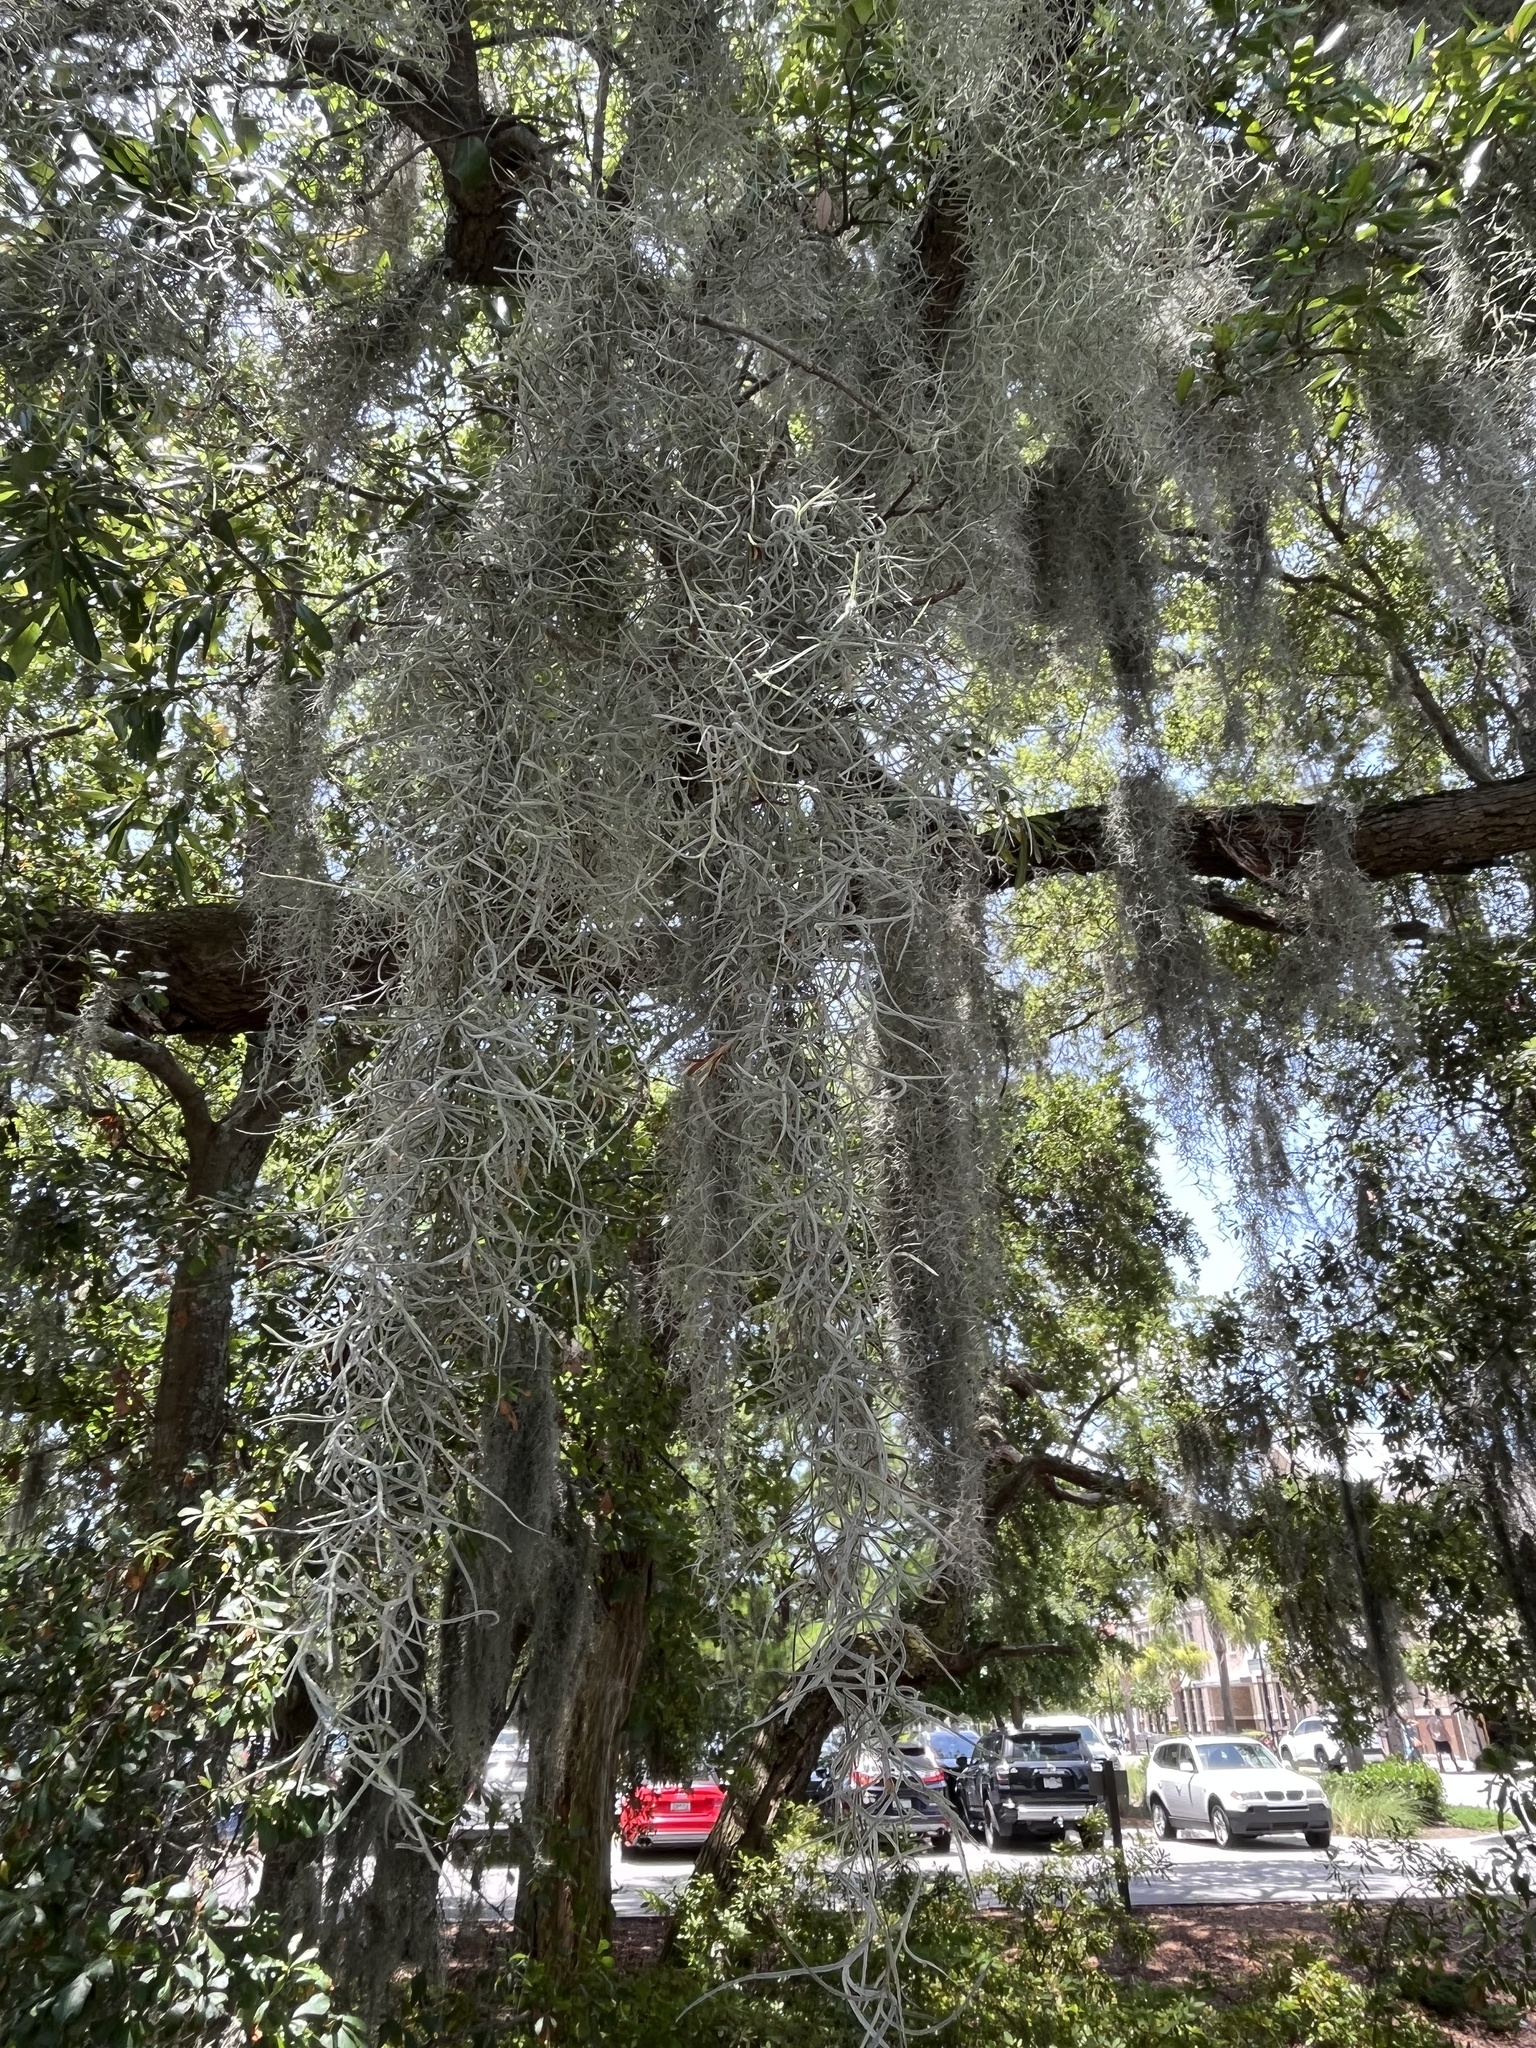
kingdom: Plantae
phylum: Tracheophyta
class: Liliopsida
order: Poales
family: Bromeliaceae
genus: Tillandsia
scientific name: Tillandsia usneoides
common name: Spanish moss
